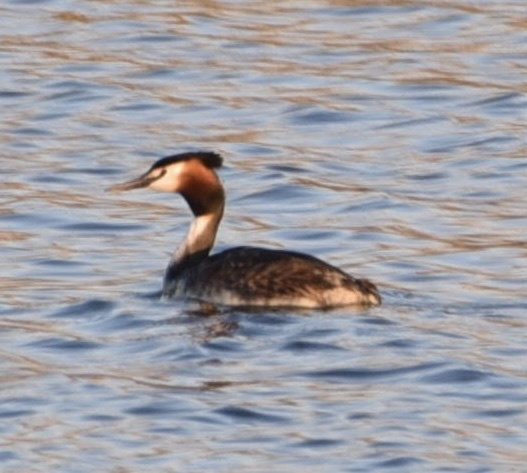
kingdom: Animalia
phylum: Chordata
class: Aves
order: Podicipediformes
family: Podicipedidae
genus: Podiceps
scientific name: Podiceps cristatus
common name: Great crested grebe
